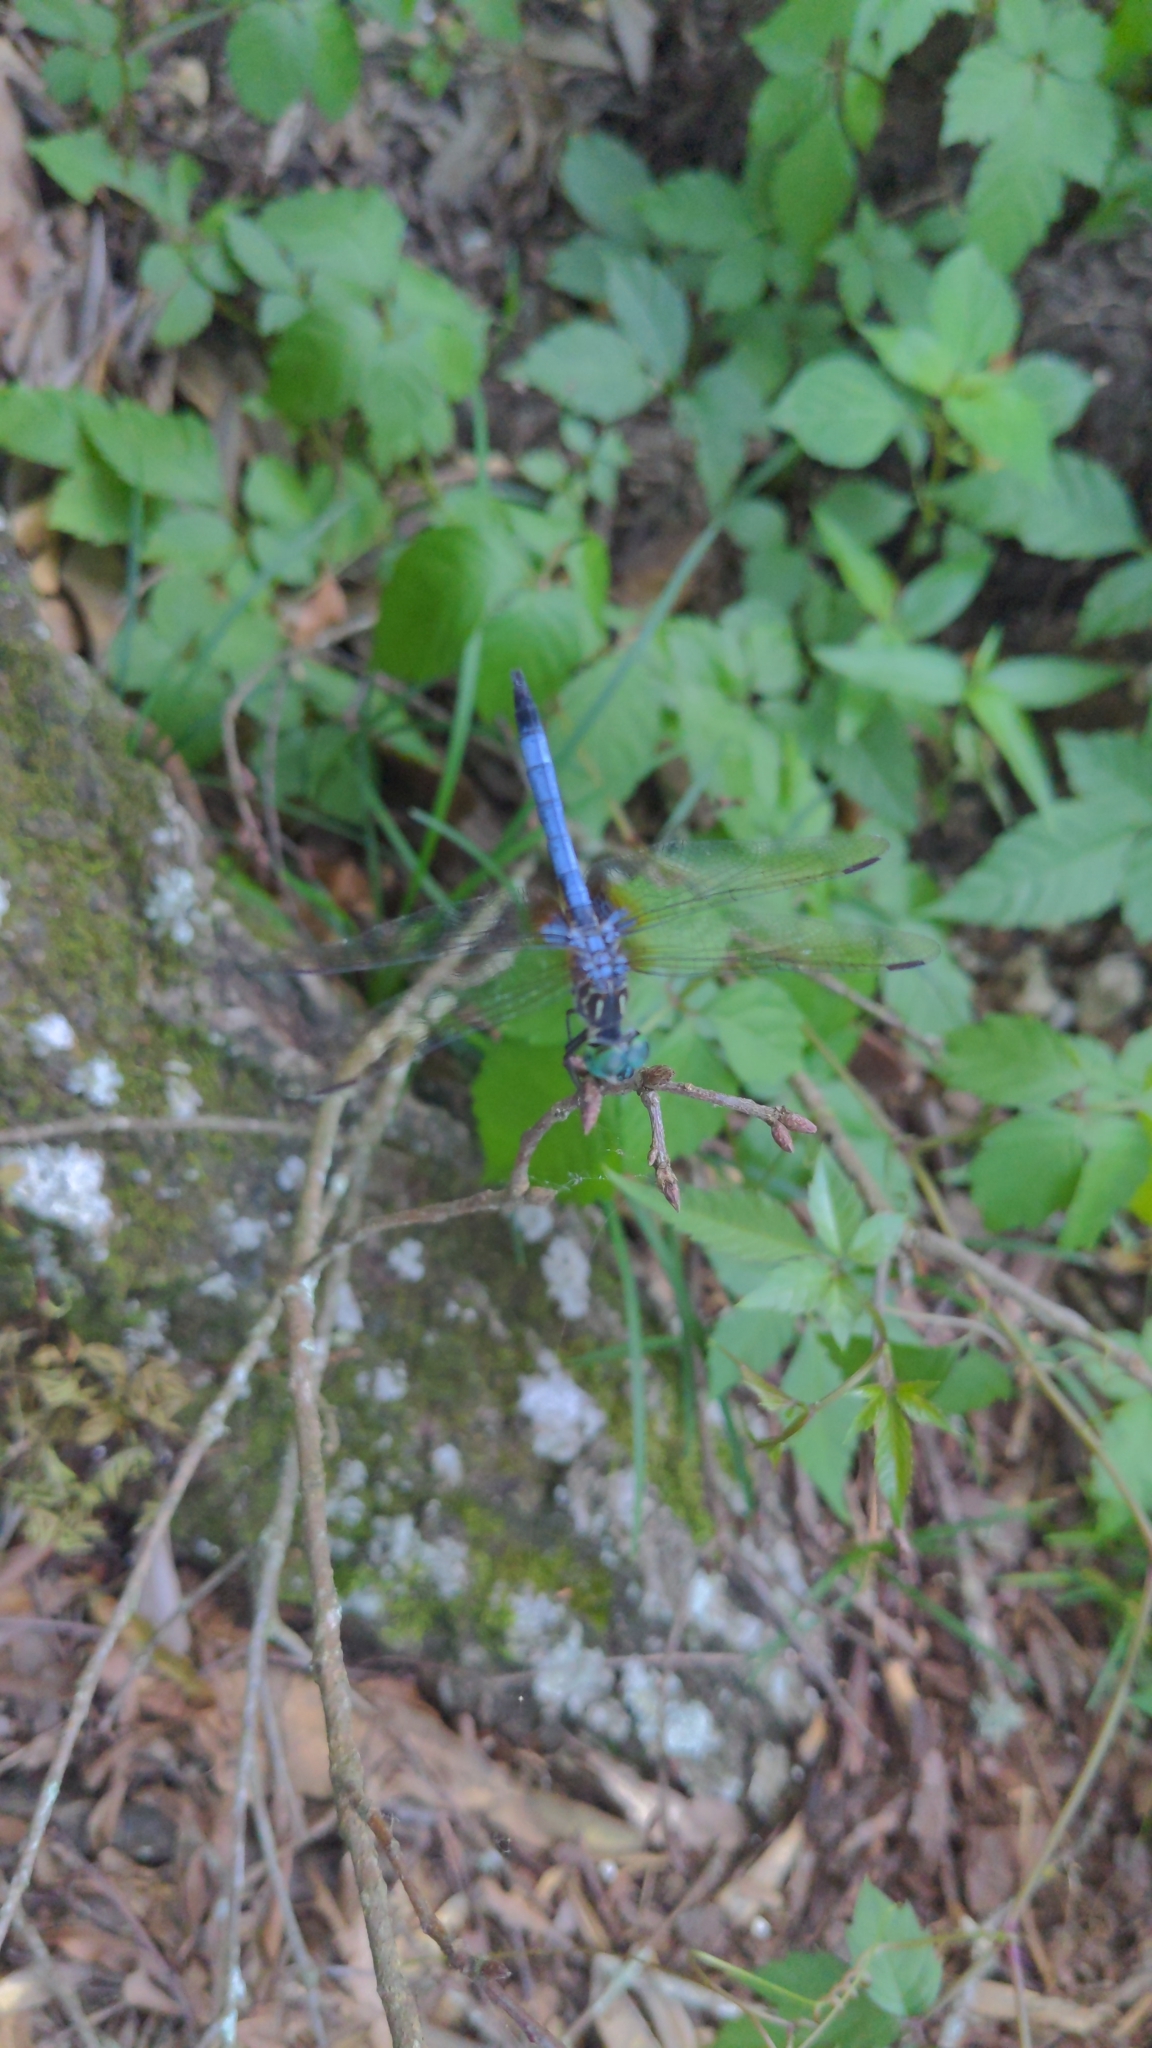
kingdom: Animalia
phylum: Arthropoda
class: Insecta
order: Odonata
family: Libellulidae
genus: Pachydiplax
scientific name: Pachydiplax longipennis
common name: Blue dasher
